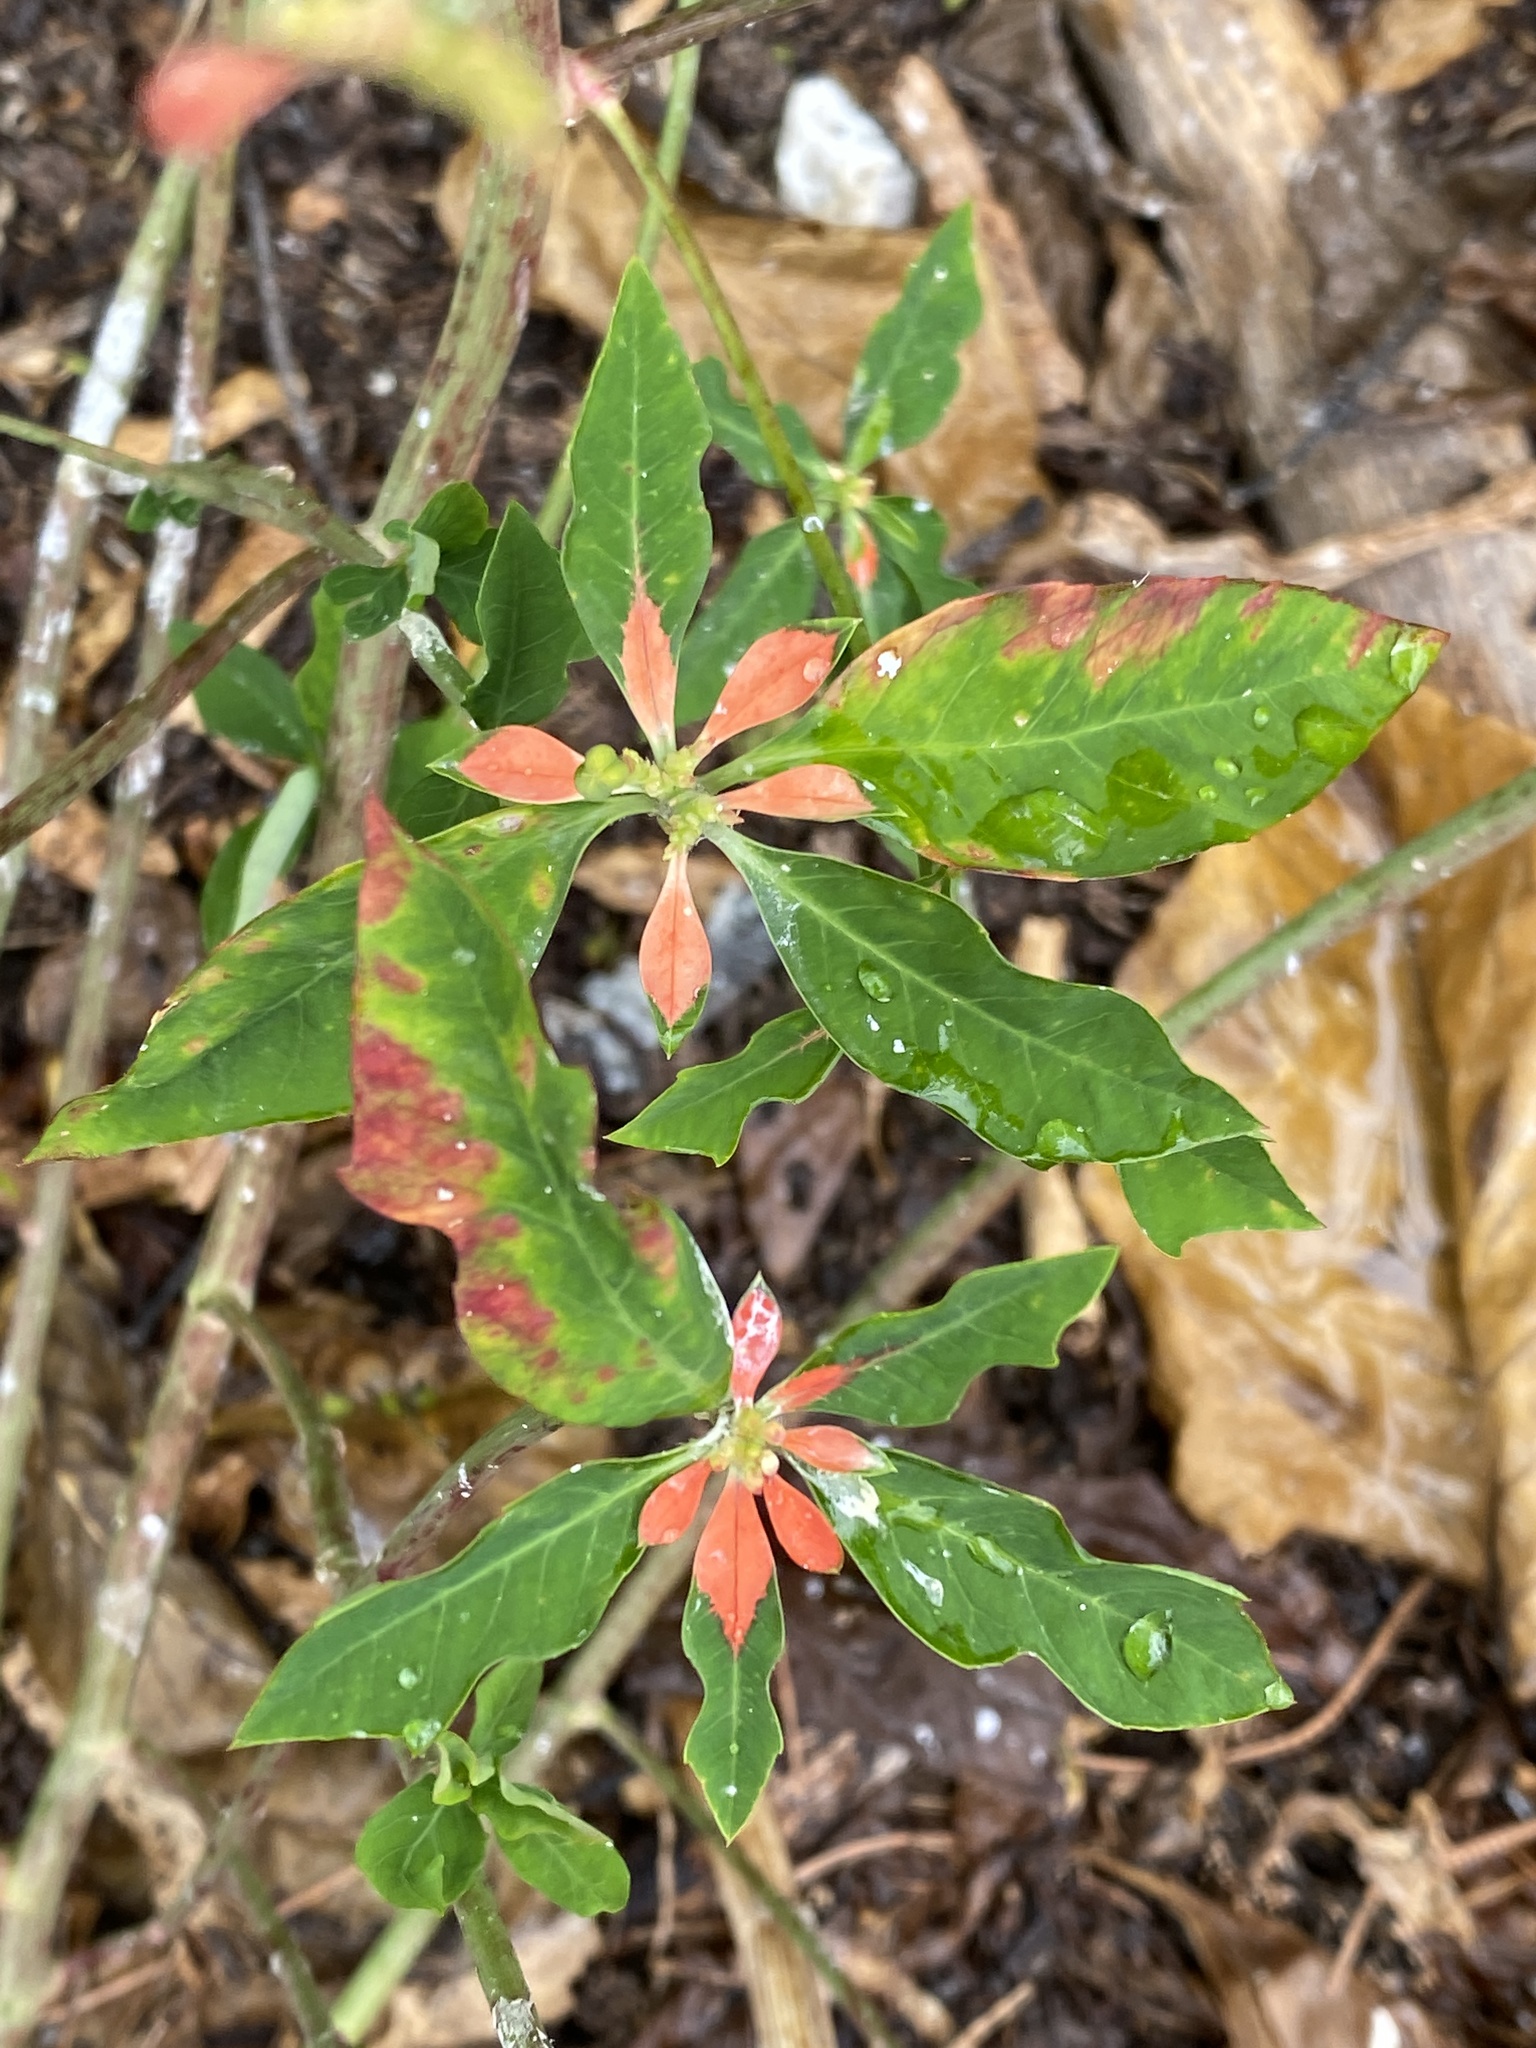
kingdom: Plantae
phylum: Tracheophyta
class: Magnoliopsida
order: Malpighiales
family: Euphorbiaceae
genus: Euphorbia
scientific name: Euphorbia heterophylla
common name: Mexican fireplant
